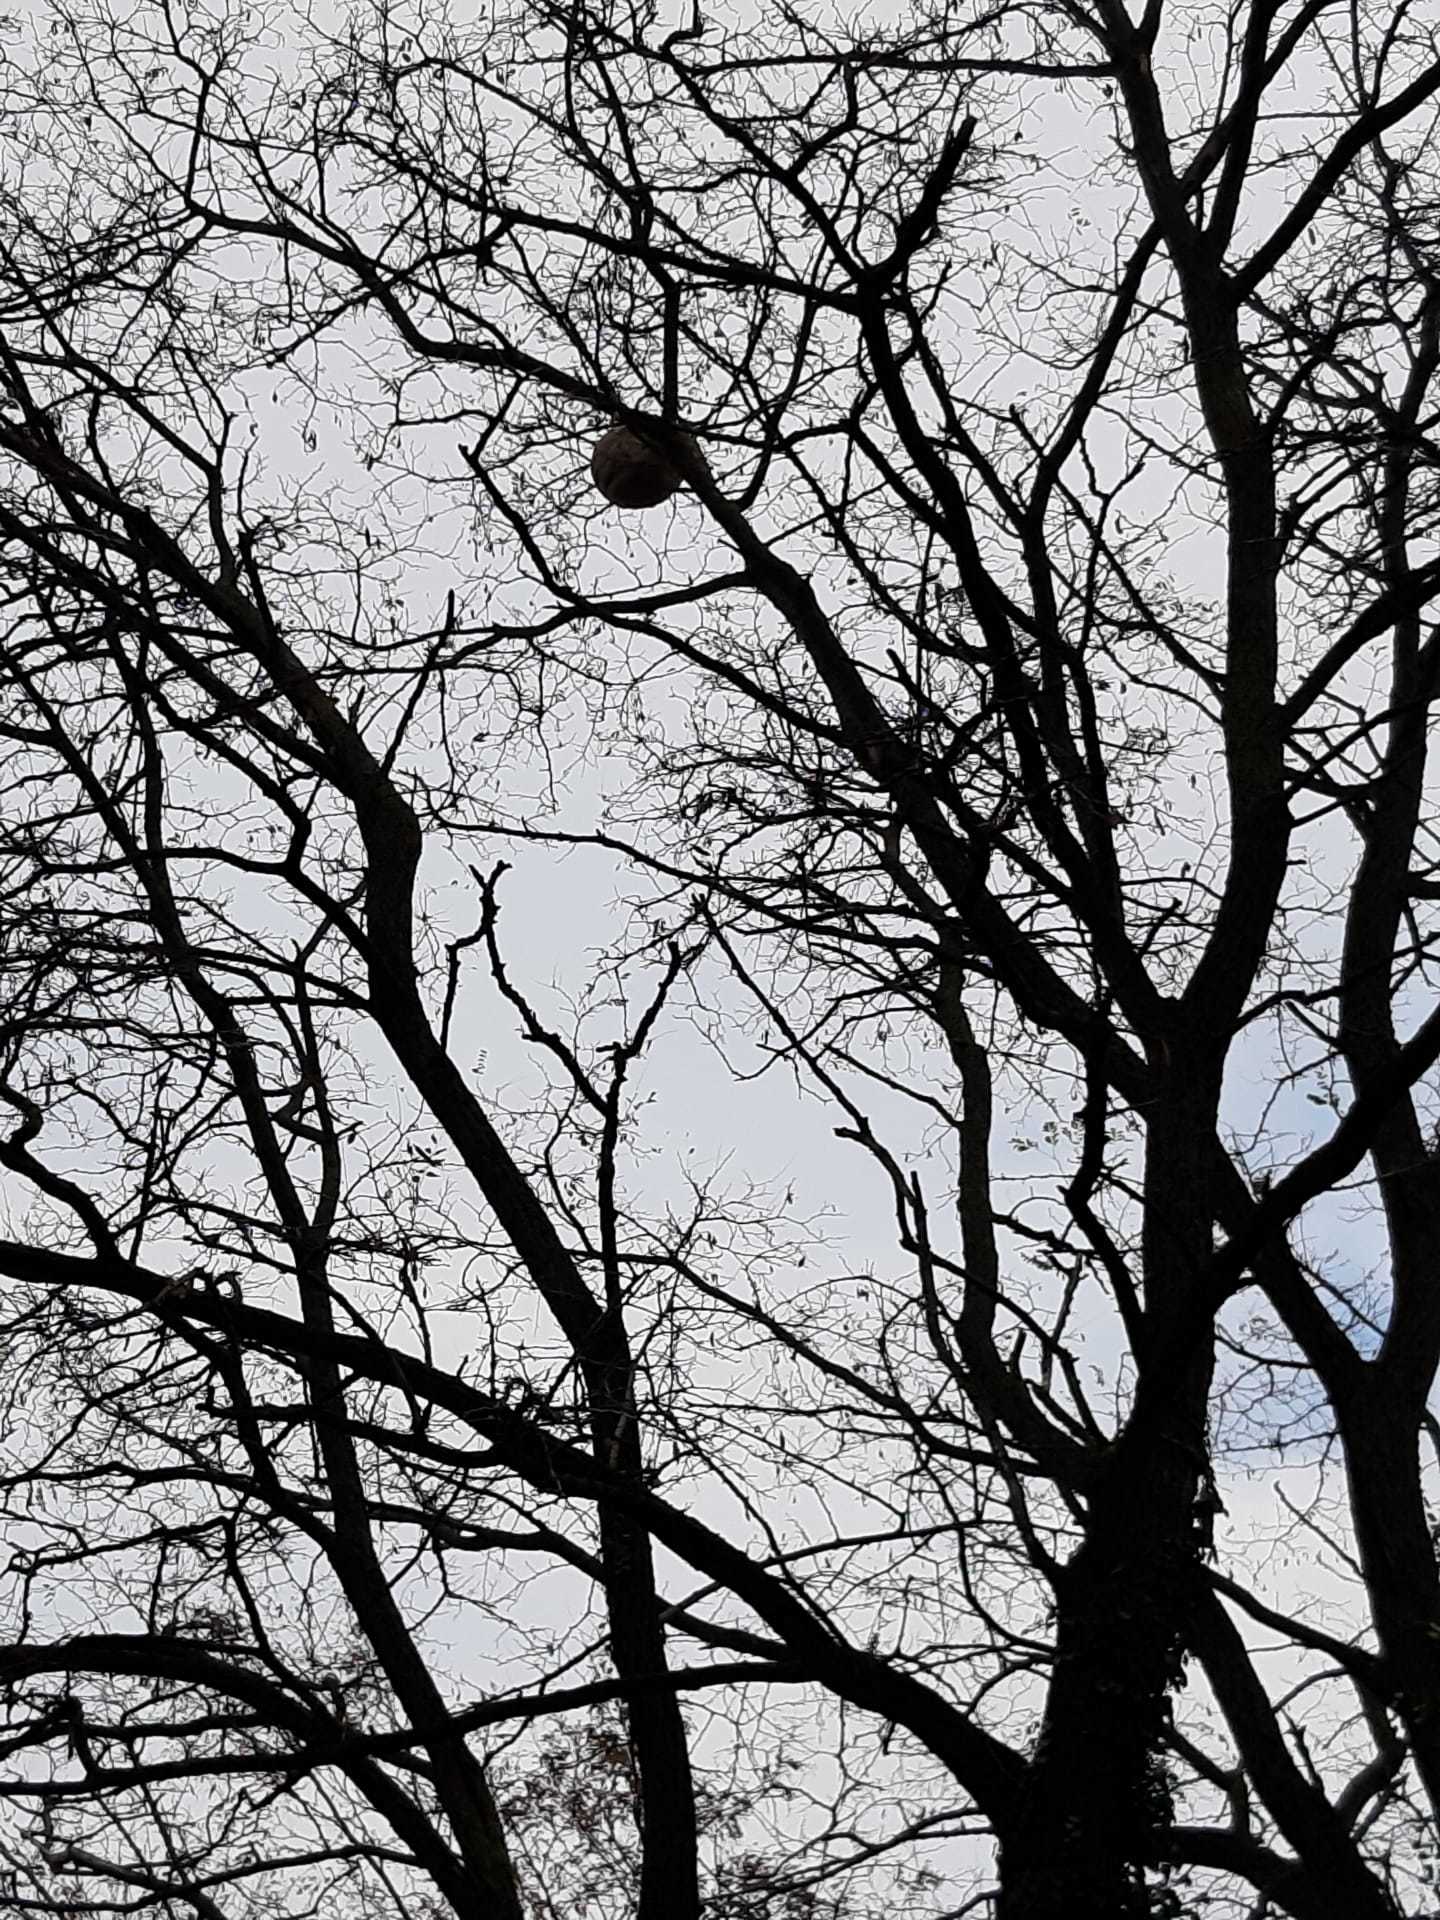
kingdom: Animalia
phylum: Arthropoda
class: Insecta
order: Hymenoptera
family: Vespidae
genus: Vespa
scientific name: Vespa velutina
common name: Asian hornet
